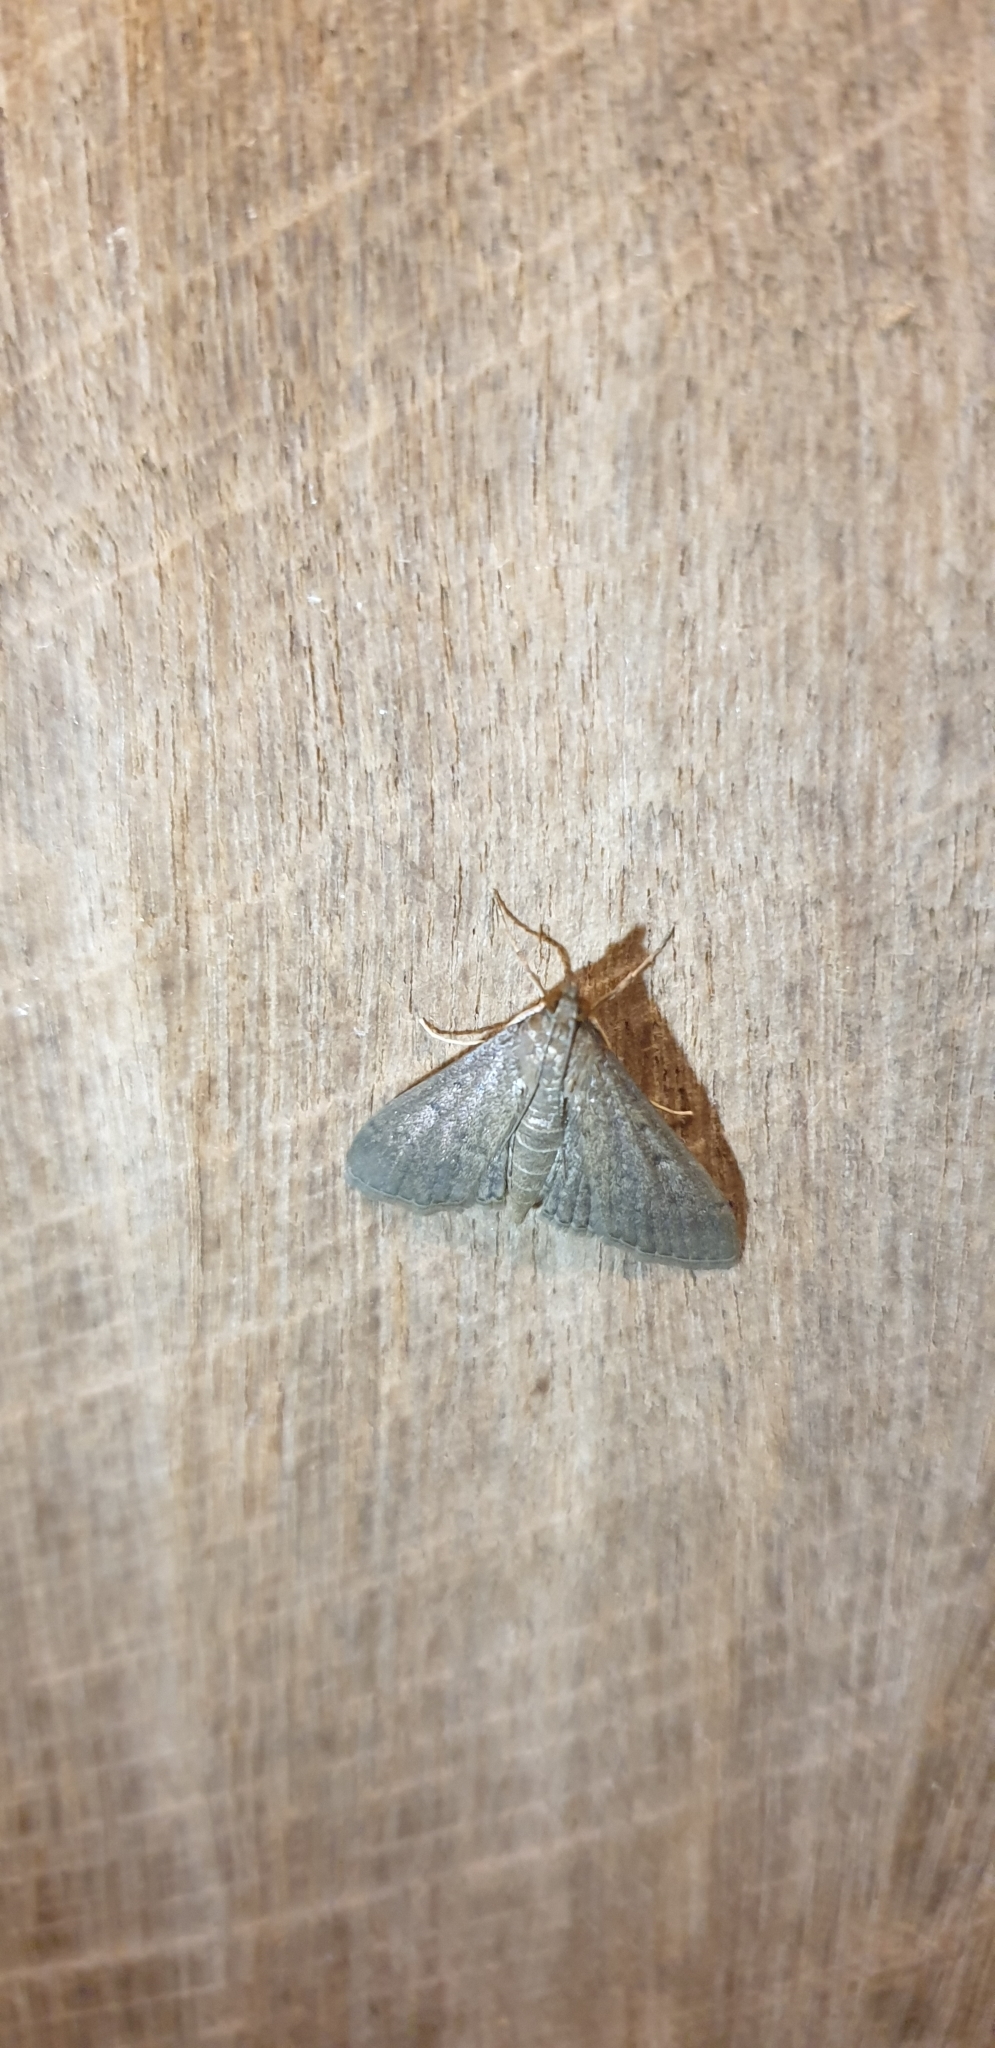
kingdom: Animalia
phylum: Arthropoda
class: Insecta
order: Lepidoptera
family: Crambidae
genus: Herpetogramma
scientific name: Herpetogramma licarsisalis
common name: Grass webworm
